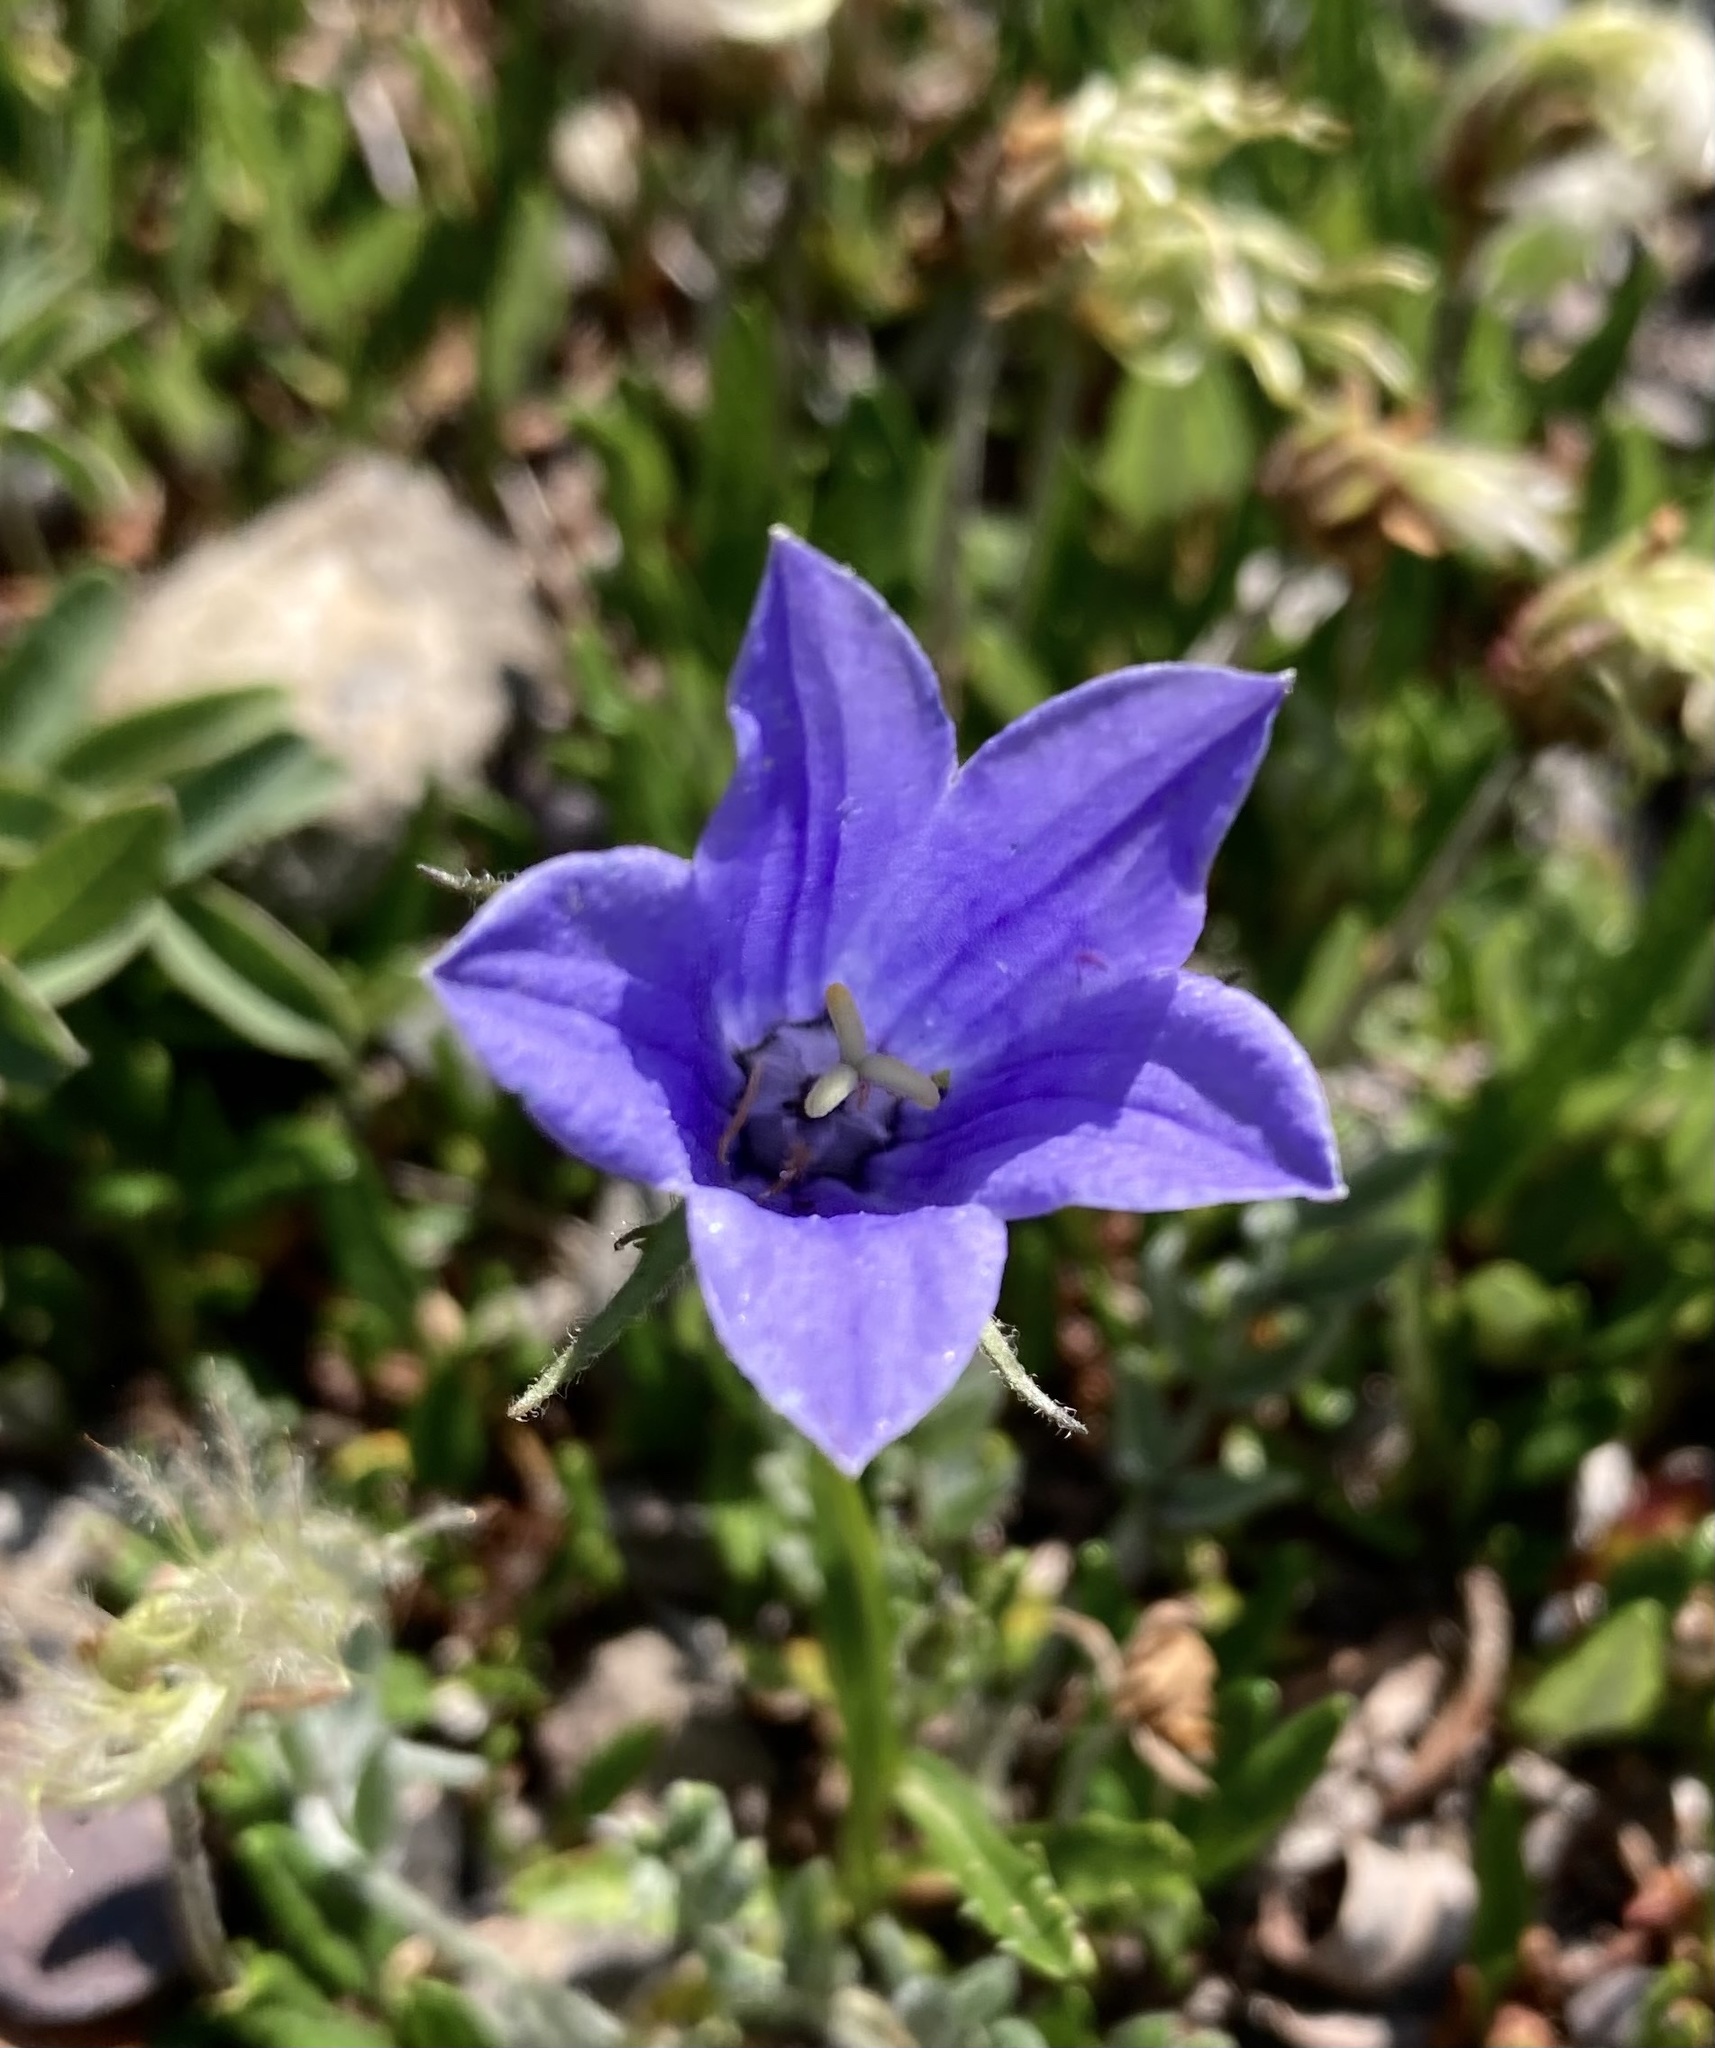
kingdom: Plantae
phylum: Tracheophyta
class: Magnoliopsida
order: Asterales
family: Campanulaceae
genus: Campanula
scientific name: Campanula lasiocarpa
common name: Mountain harebell
